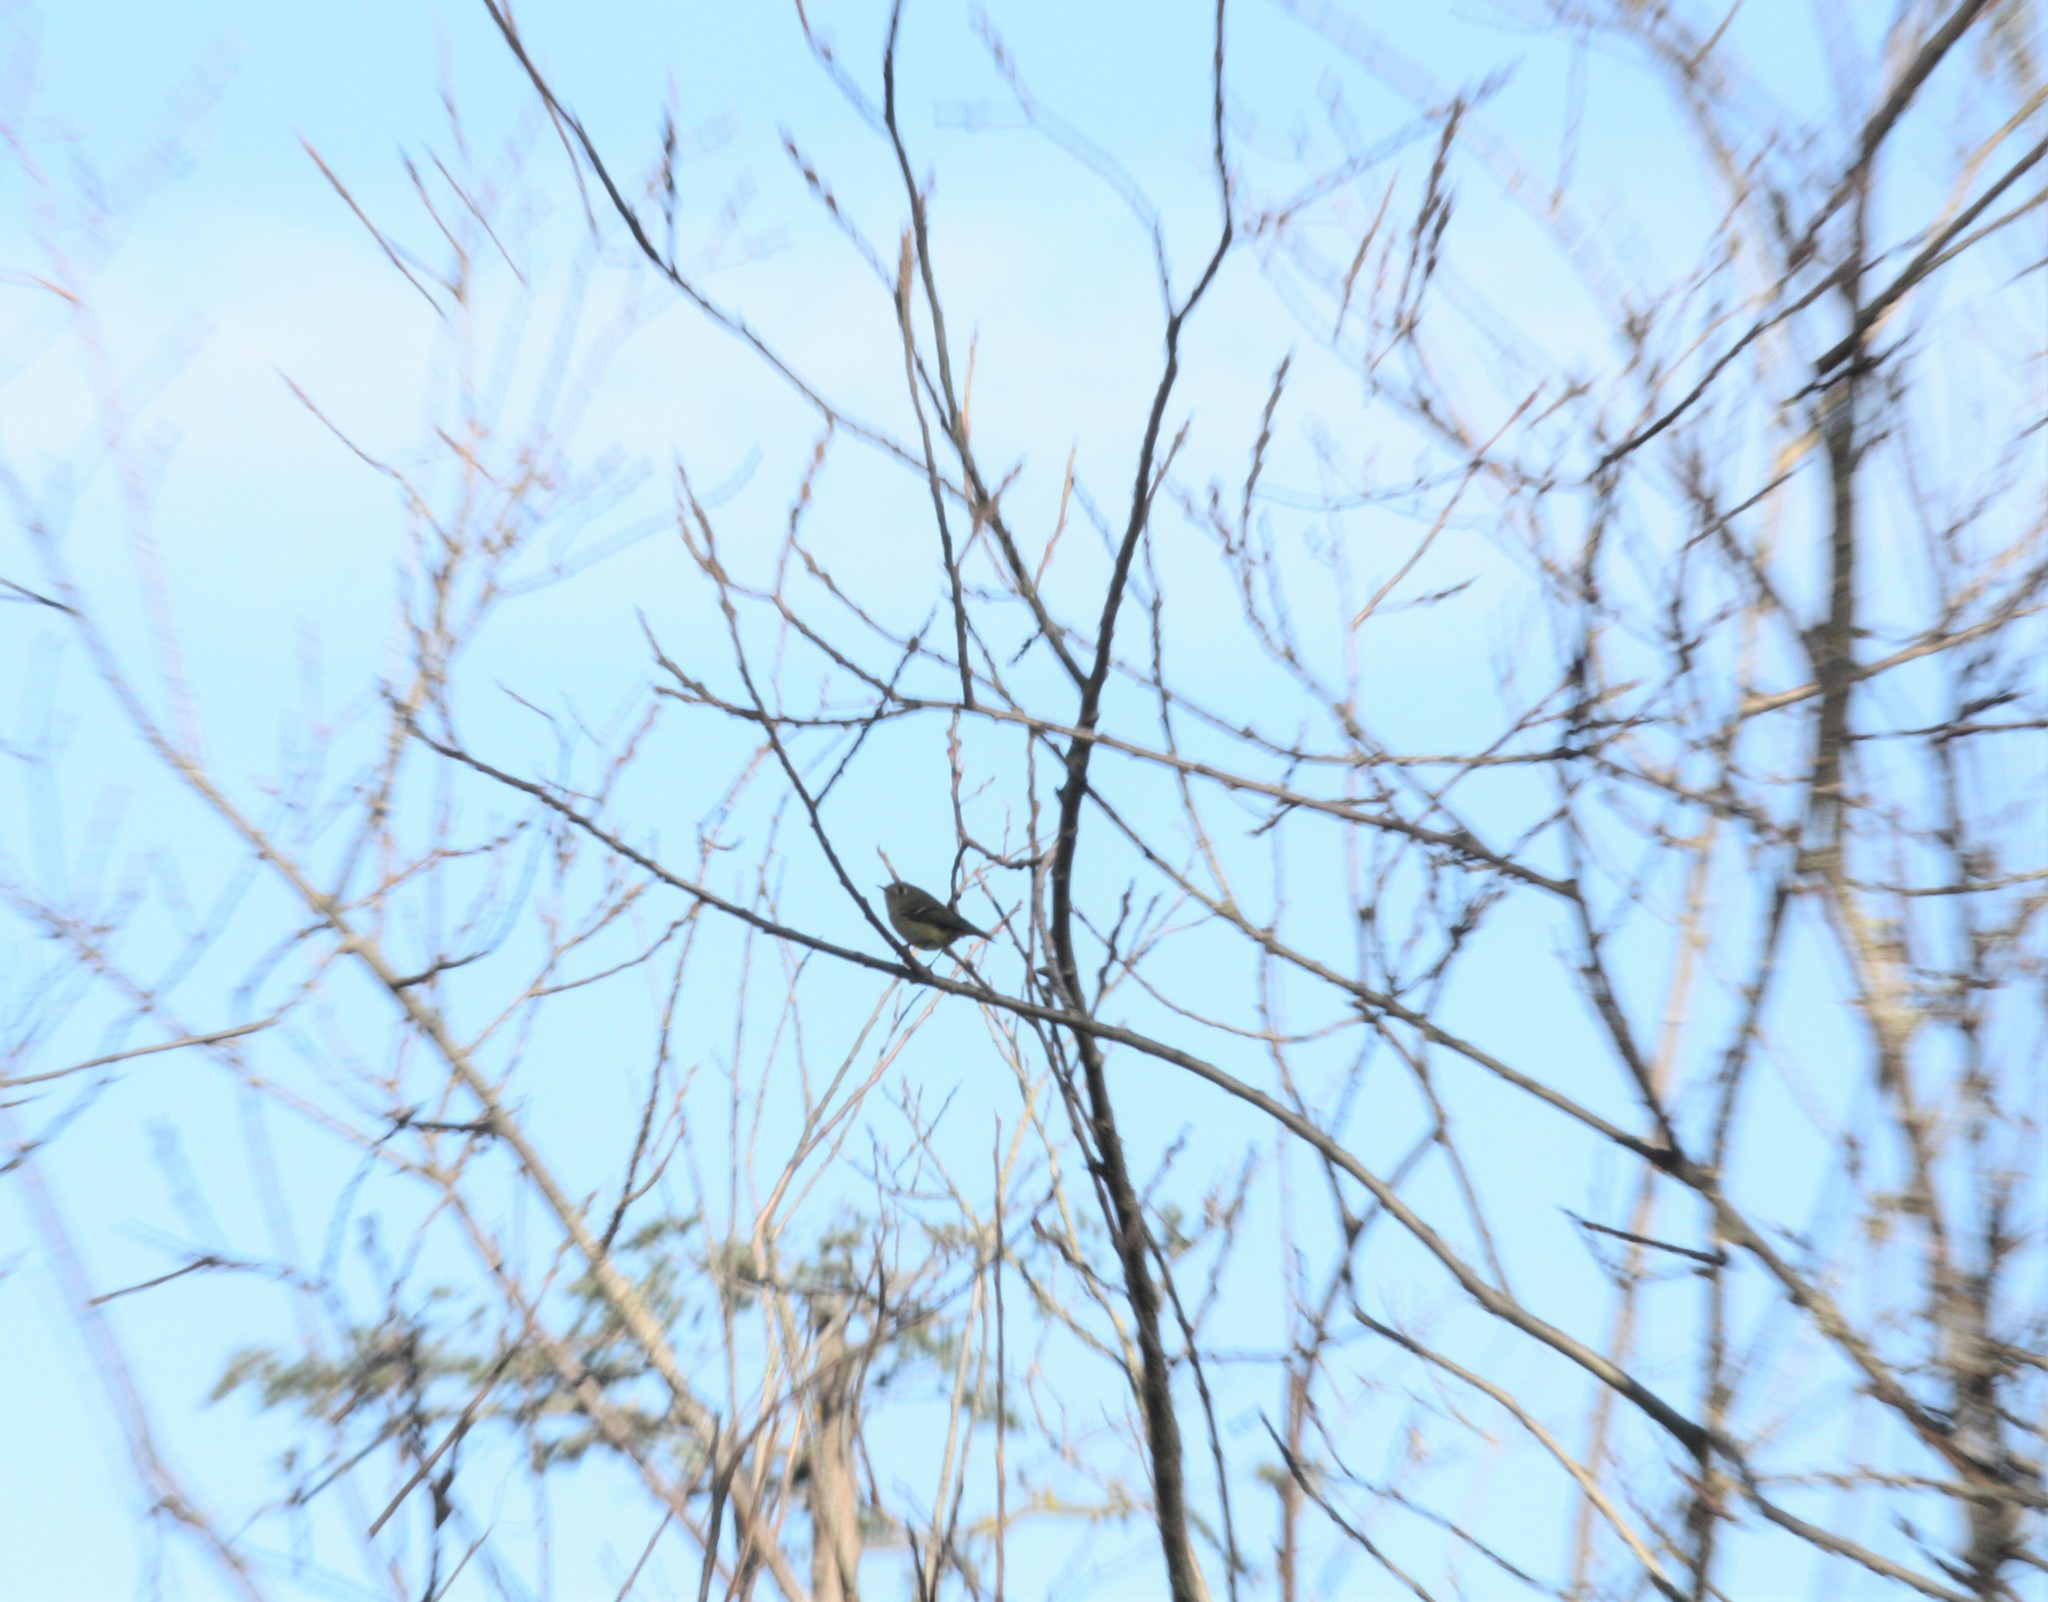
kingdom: Animalia
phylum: Chordata
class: Aves
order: Passeriformes
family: Regulidae
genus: Regulus
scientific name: Regulus calendula
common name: Ruby-crowned kinglet
